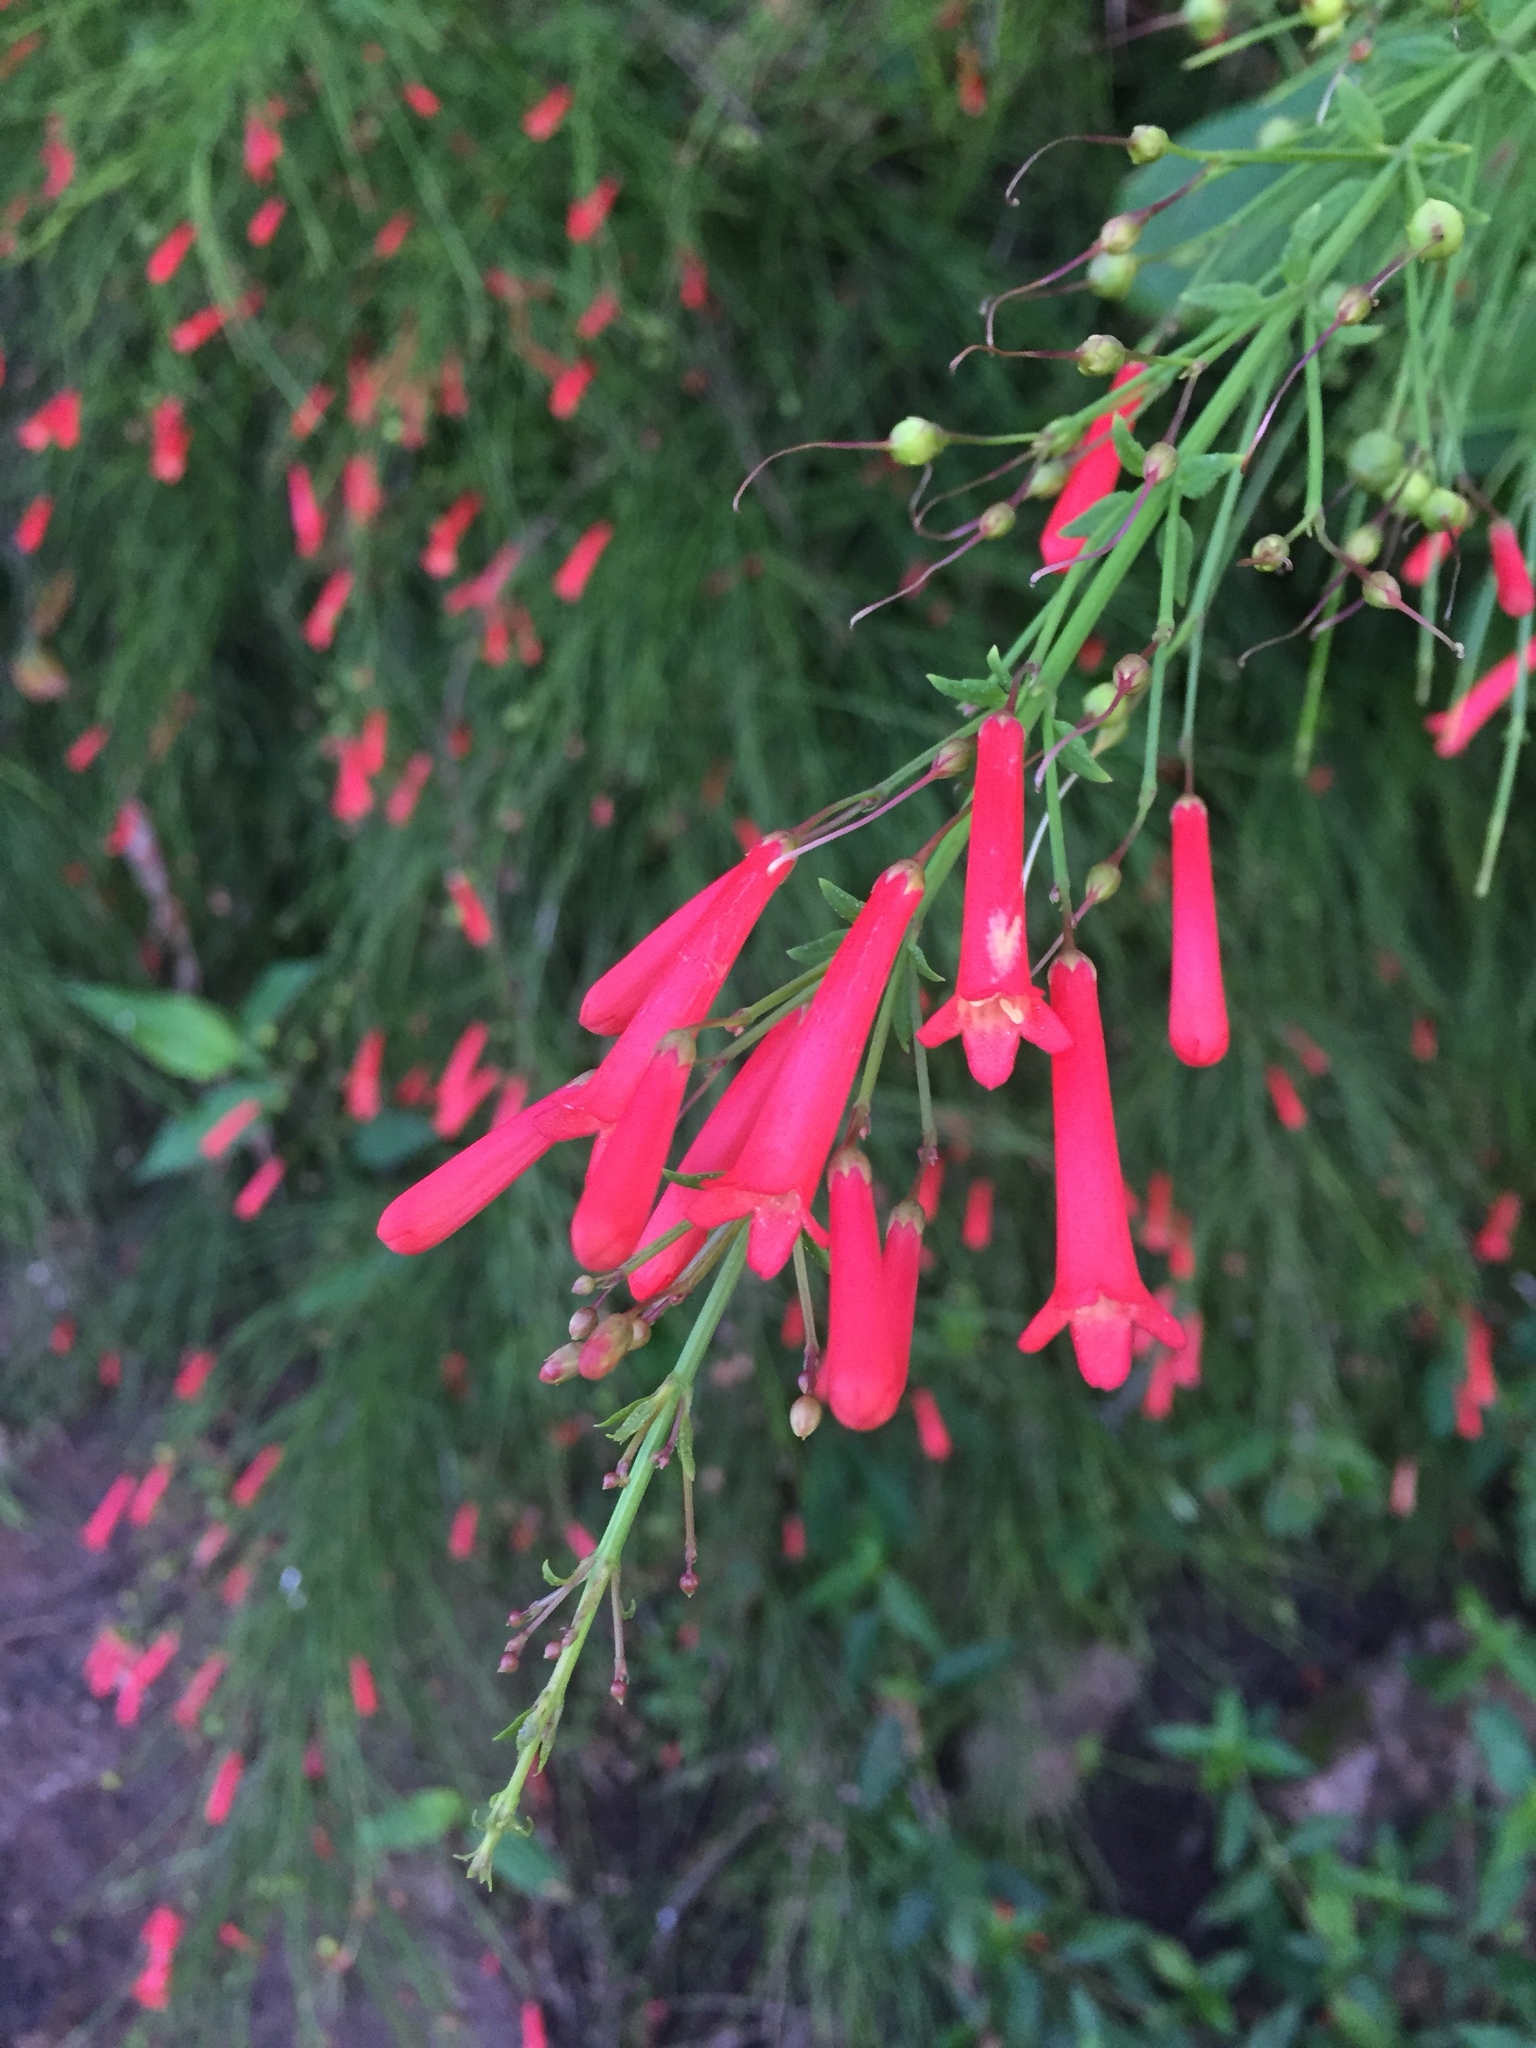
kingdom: Plantae
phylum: Tracheophyta
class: Magnoliopsida
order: Lamiales
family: Plantaginaceae
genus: Russelia
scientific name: Russelia equisetiformis
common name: Fountainbush
